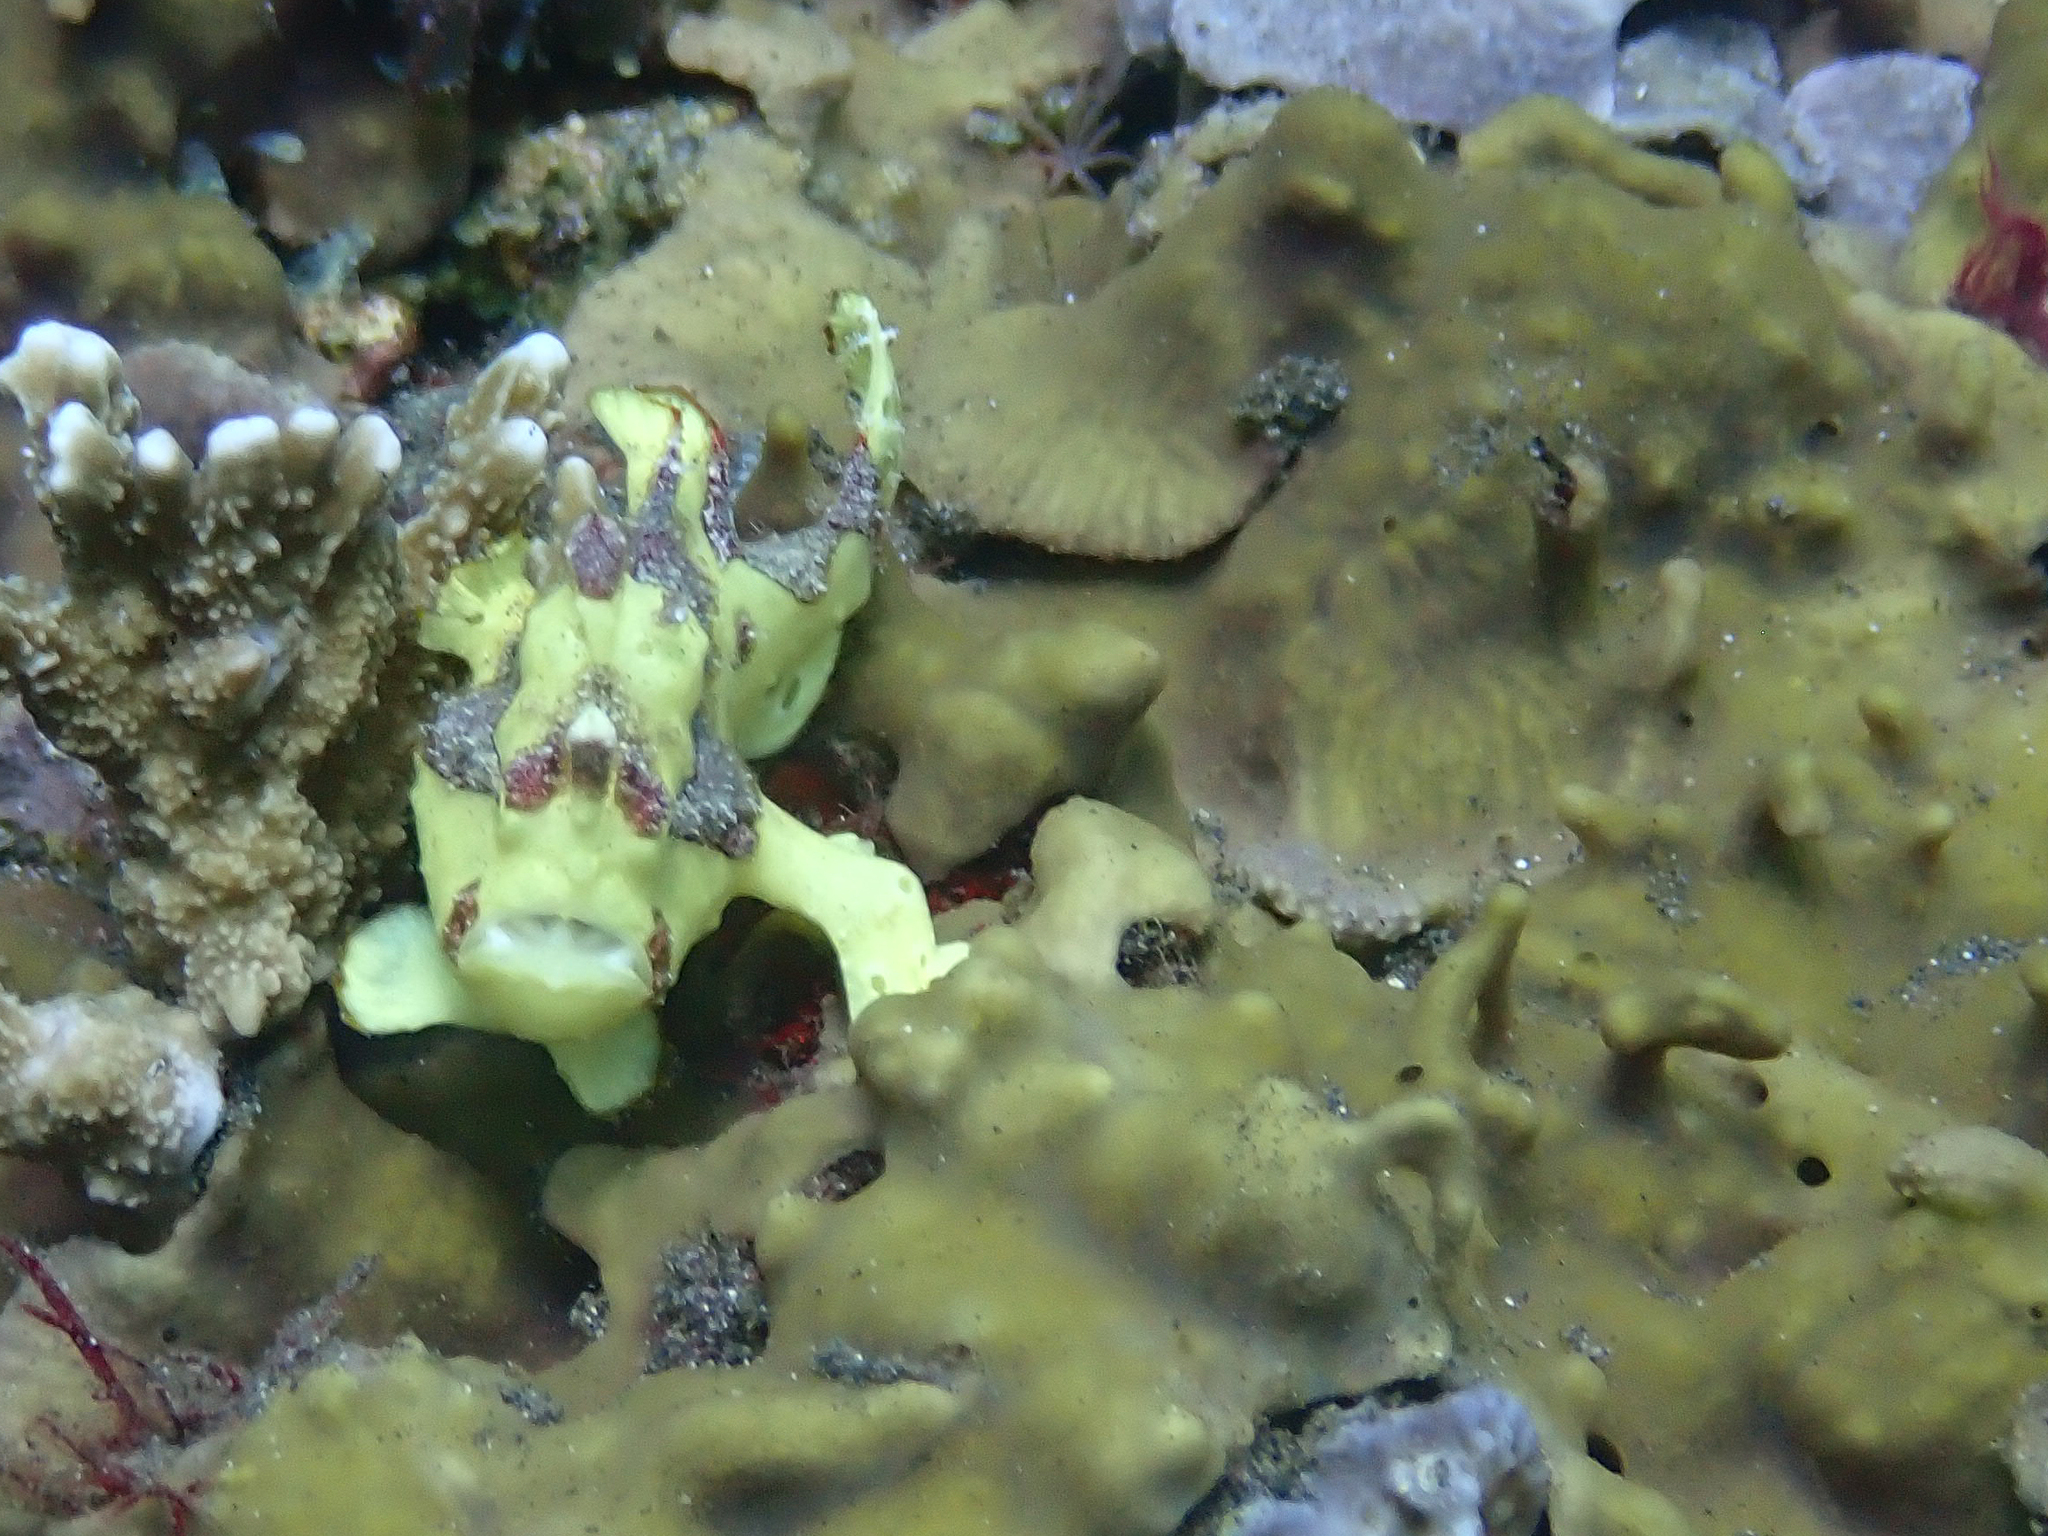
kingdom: Animalia
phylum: Chordata
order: Lophiiformes
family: Antennariidae
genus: Antennarius
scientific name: Antennarius maculatus
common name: Warty frogfish
